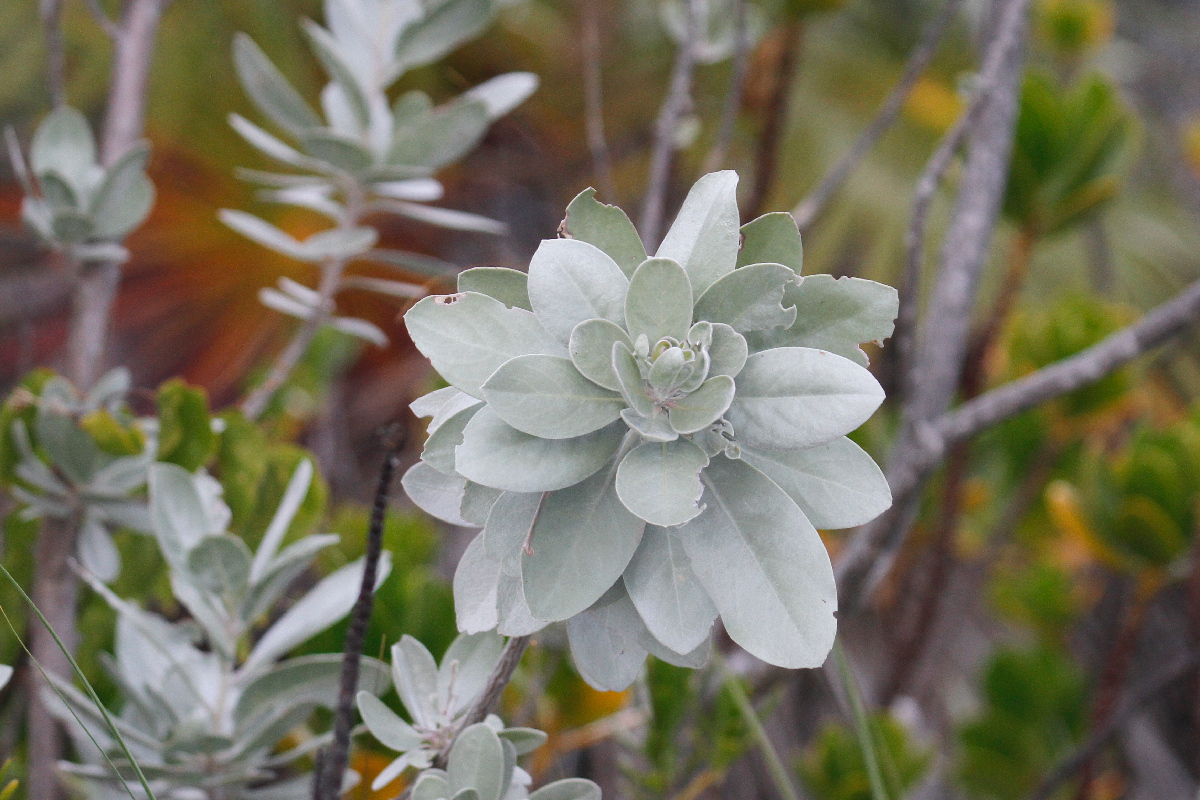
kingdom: Plantae
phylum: Tracheophyta
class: Magnoliopsida
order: Myrtales
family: Combretaceae
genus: Conocarpus
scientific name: Conocarpus erectus
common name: Button mangrove
